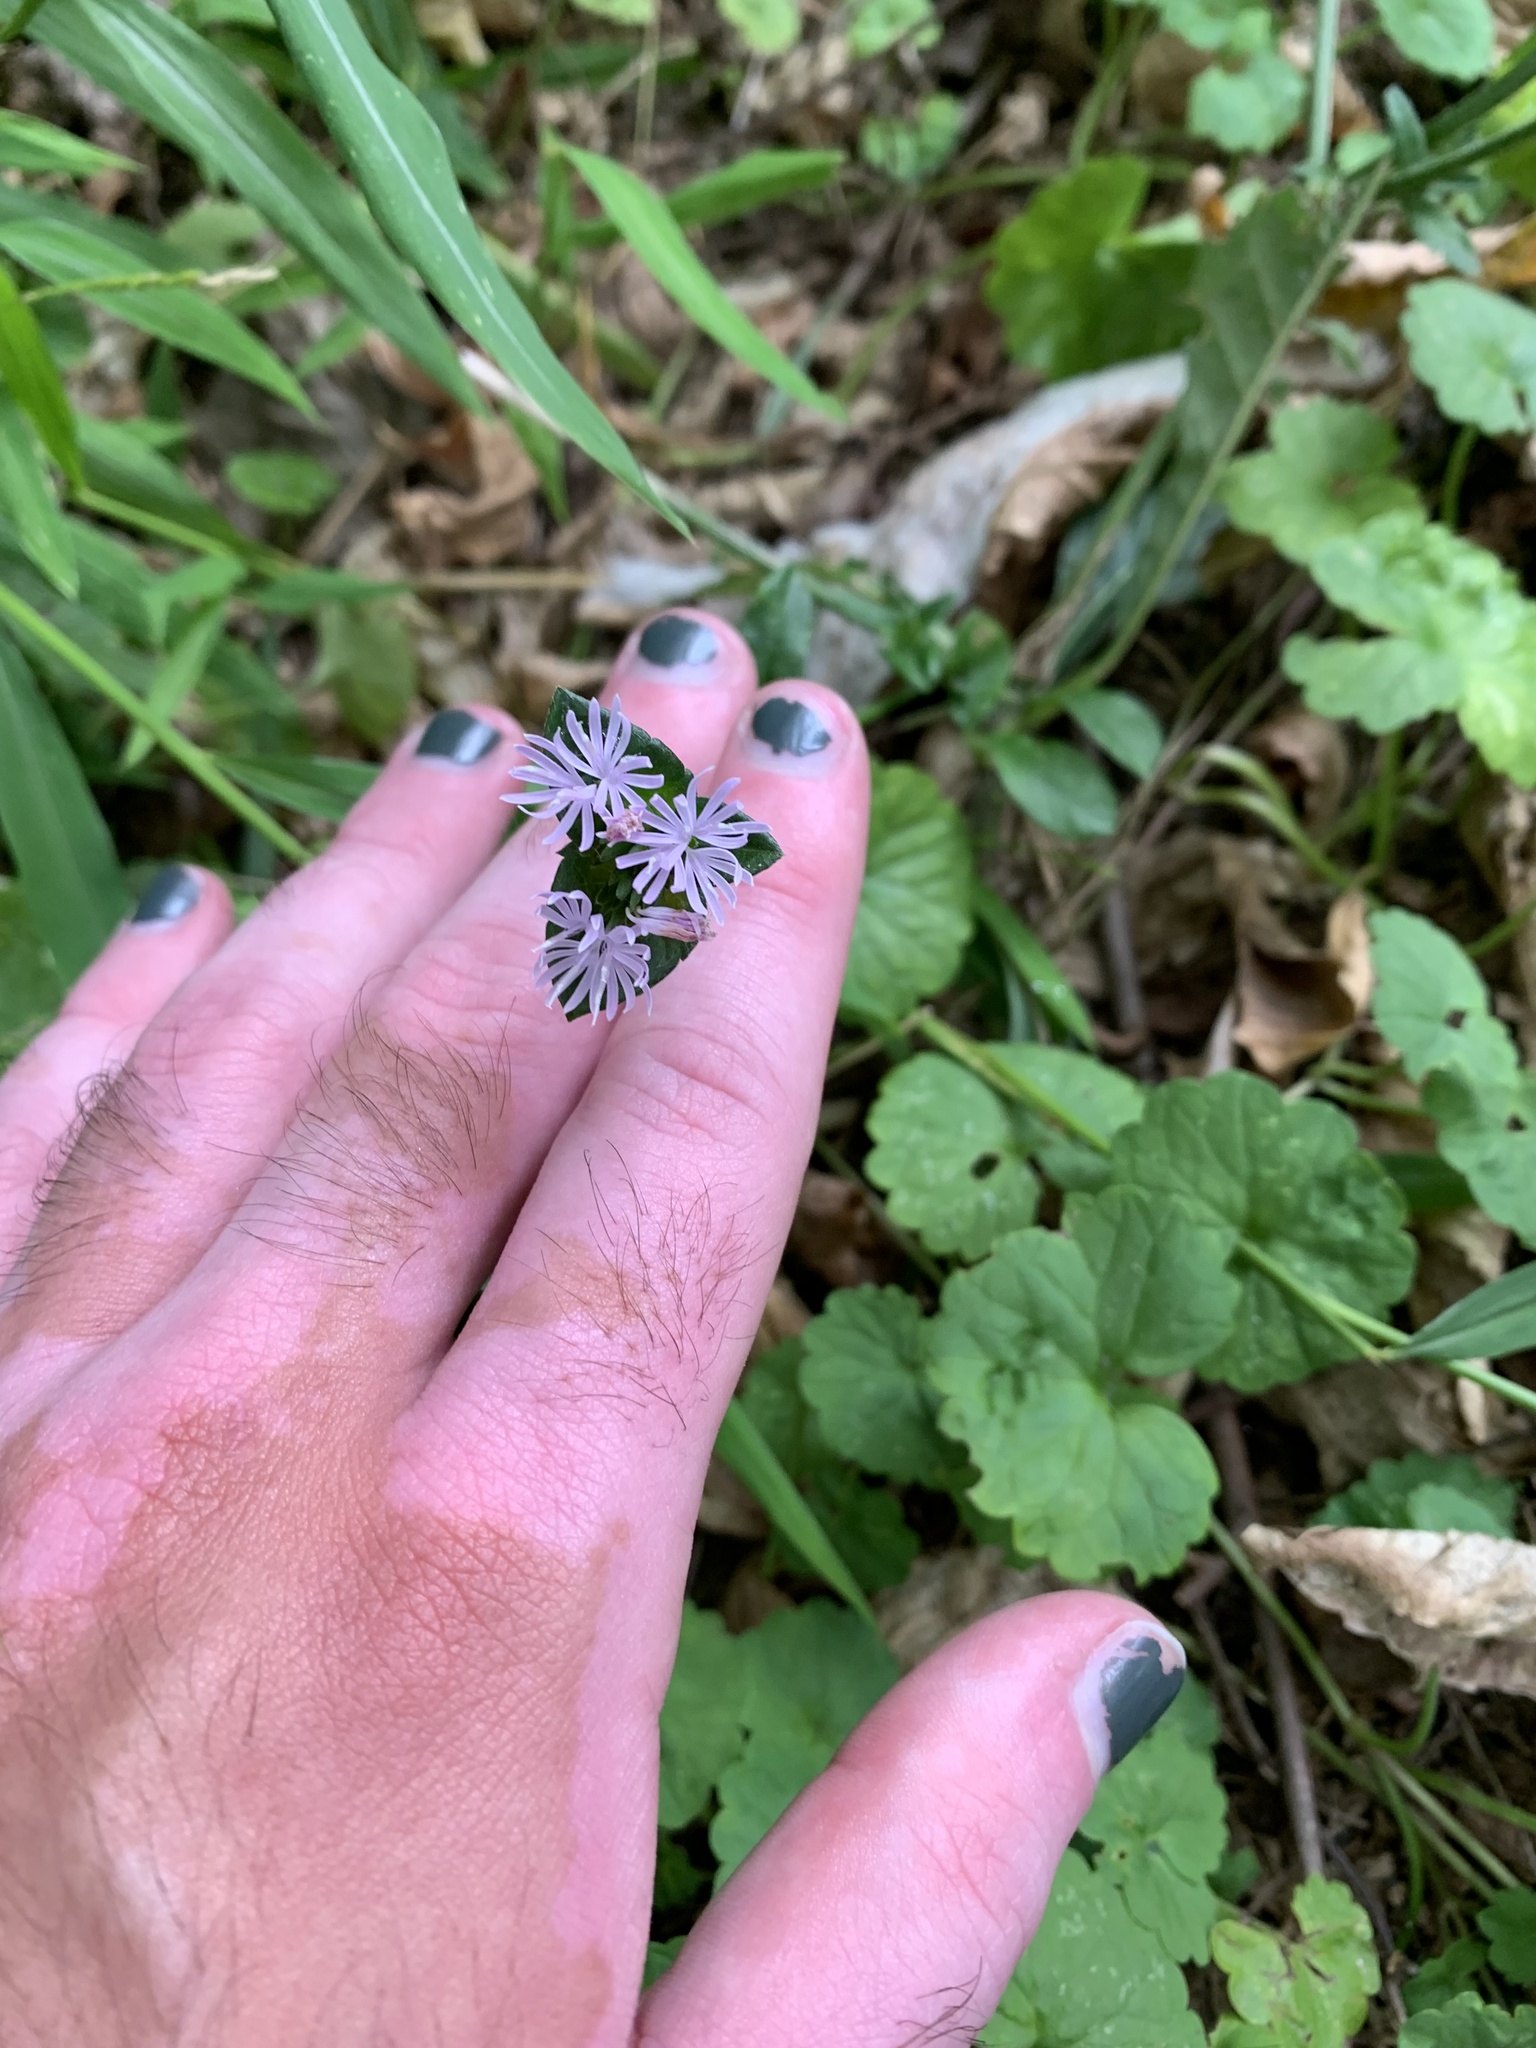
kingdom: Plantae
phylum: Tracheophyta
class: Magnoliopsida
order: Asterales
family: Asteraceae
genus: Elephantopus
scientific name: Elephantopus tomentosus
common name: Tobacco-weed
